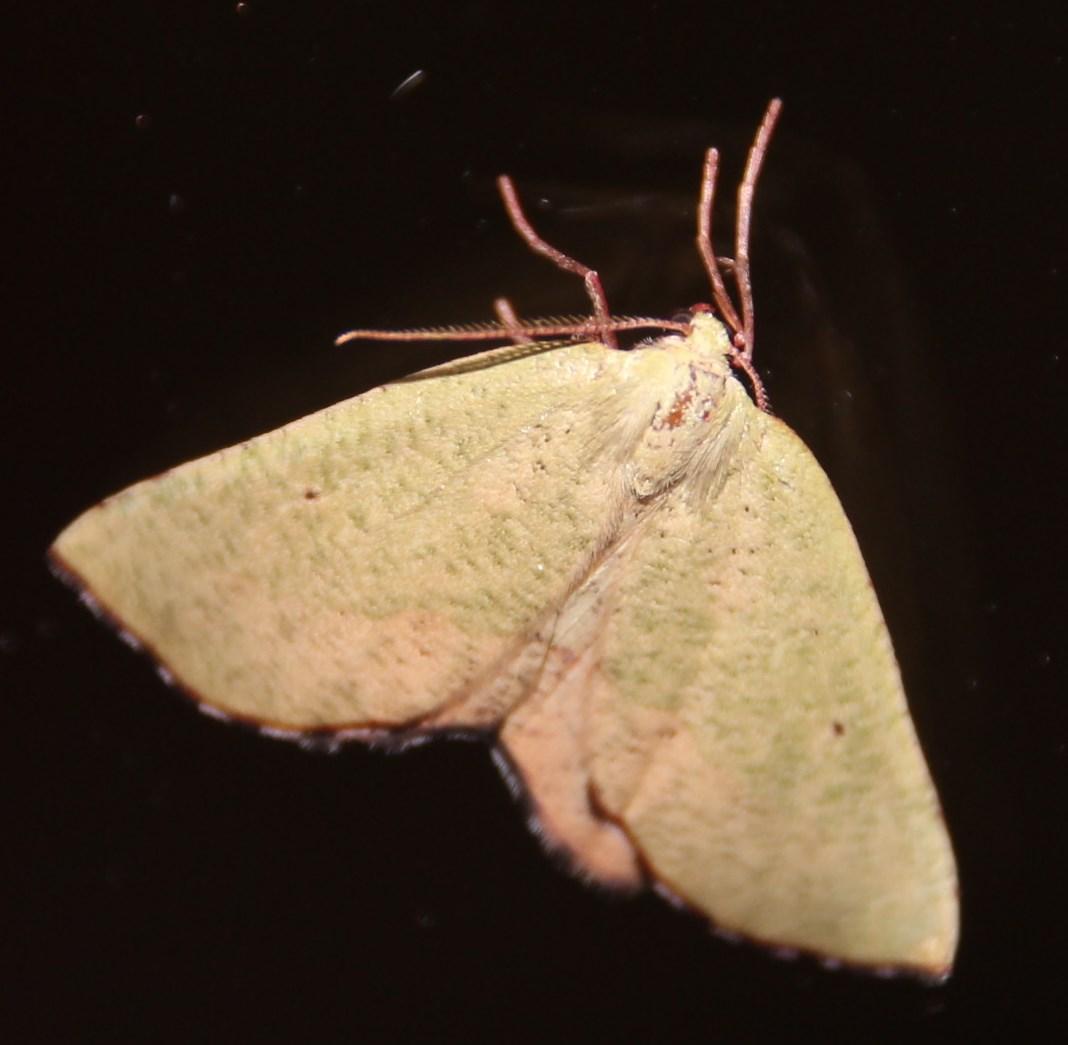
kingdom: Animalia
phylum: Arthropoda
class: Insecta
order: Lepidoptera
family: Geometridae
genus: Sicyodes
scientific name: Sicyodes olivescens
